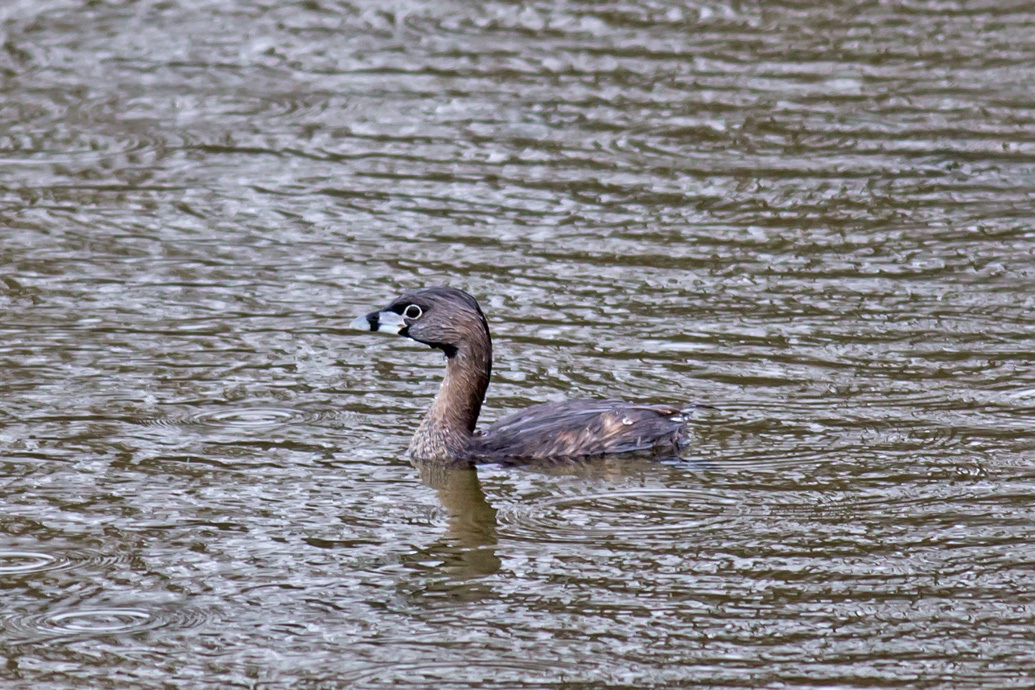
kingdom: Animalia
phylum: Chordata
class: Aves
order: Podicipediformes
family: Podicipedidae
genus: Podilymbus
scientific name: Podilymbus podiceps
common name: Pied-billed grebe
